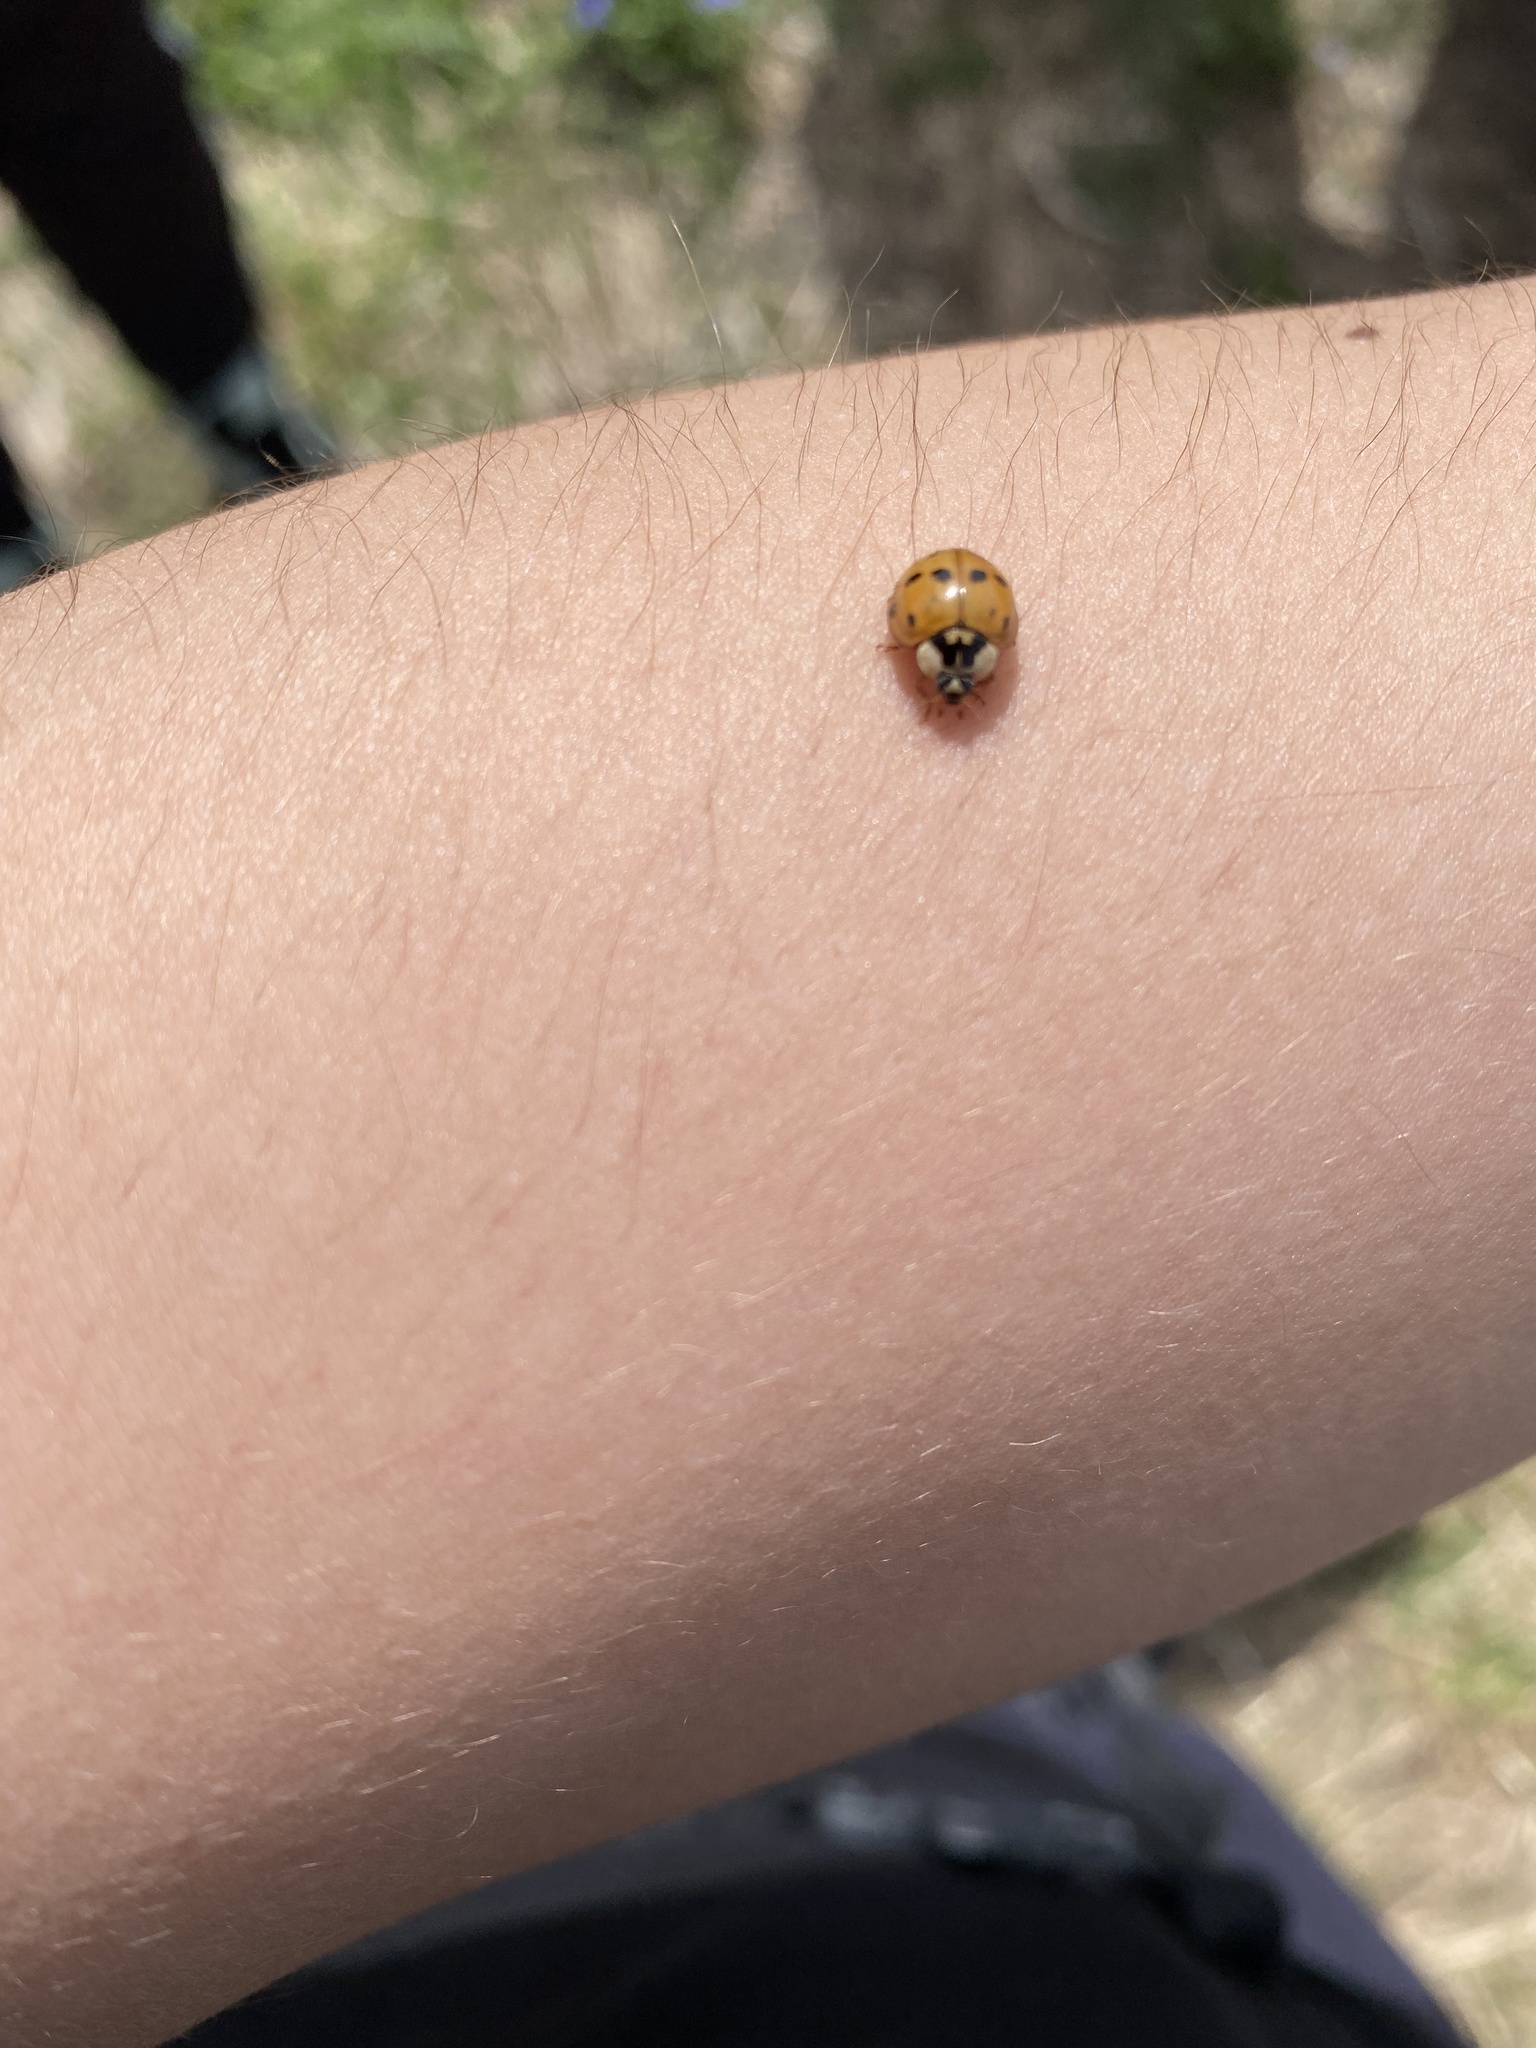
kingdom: Animalia
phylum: Arthropoda
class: Insecta
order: Coleoptera
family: Coccinellidae
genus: Harmonia
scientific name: Harmonia axyridis
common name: Harlequin ladybird
